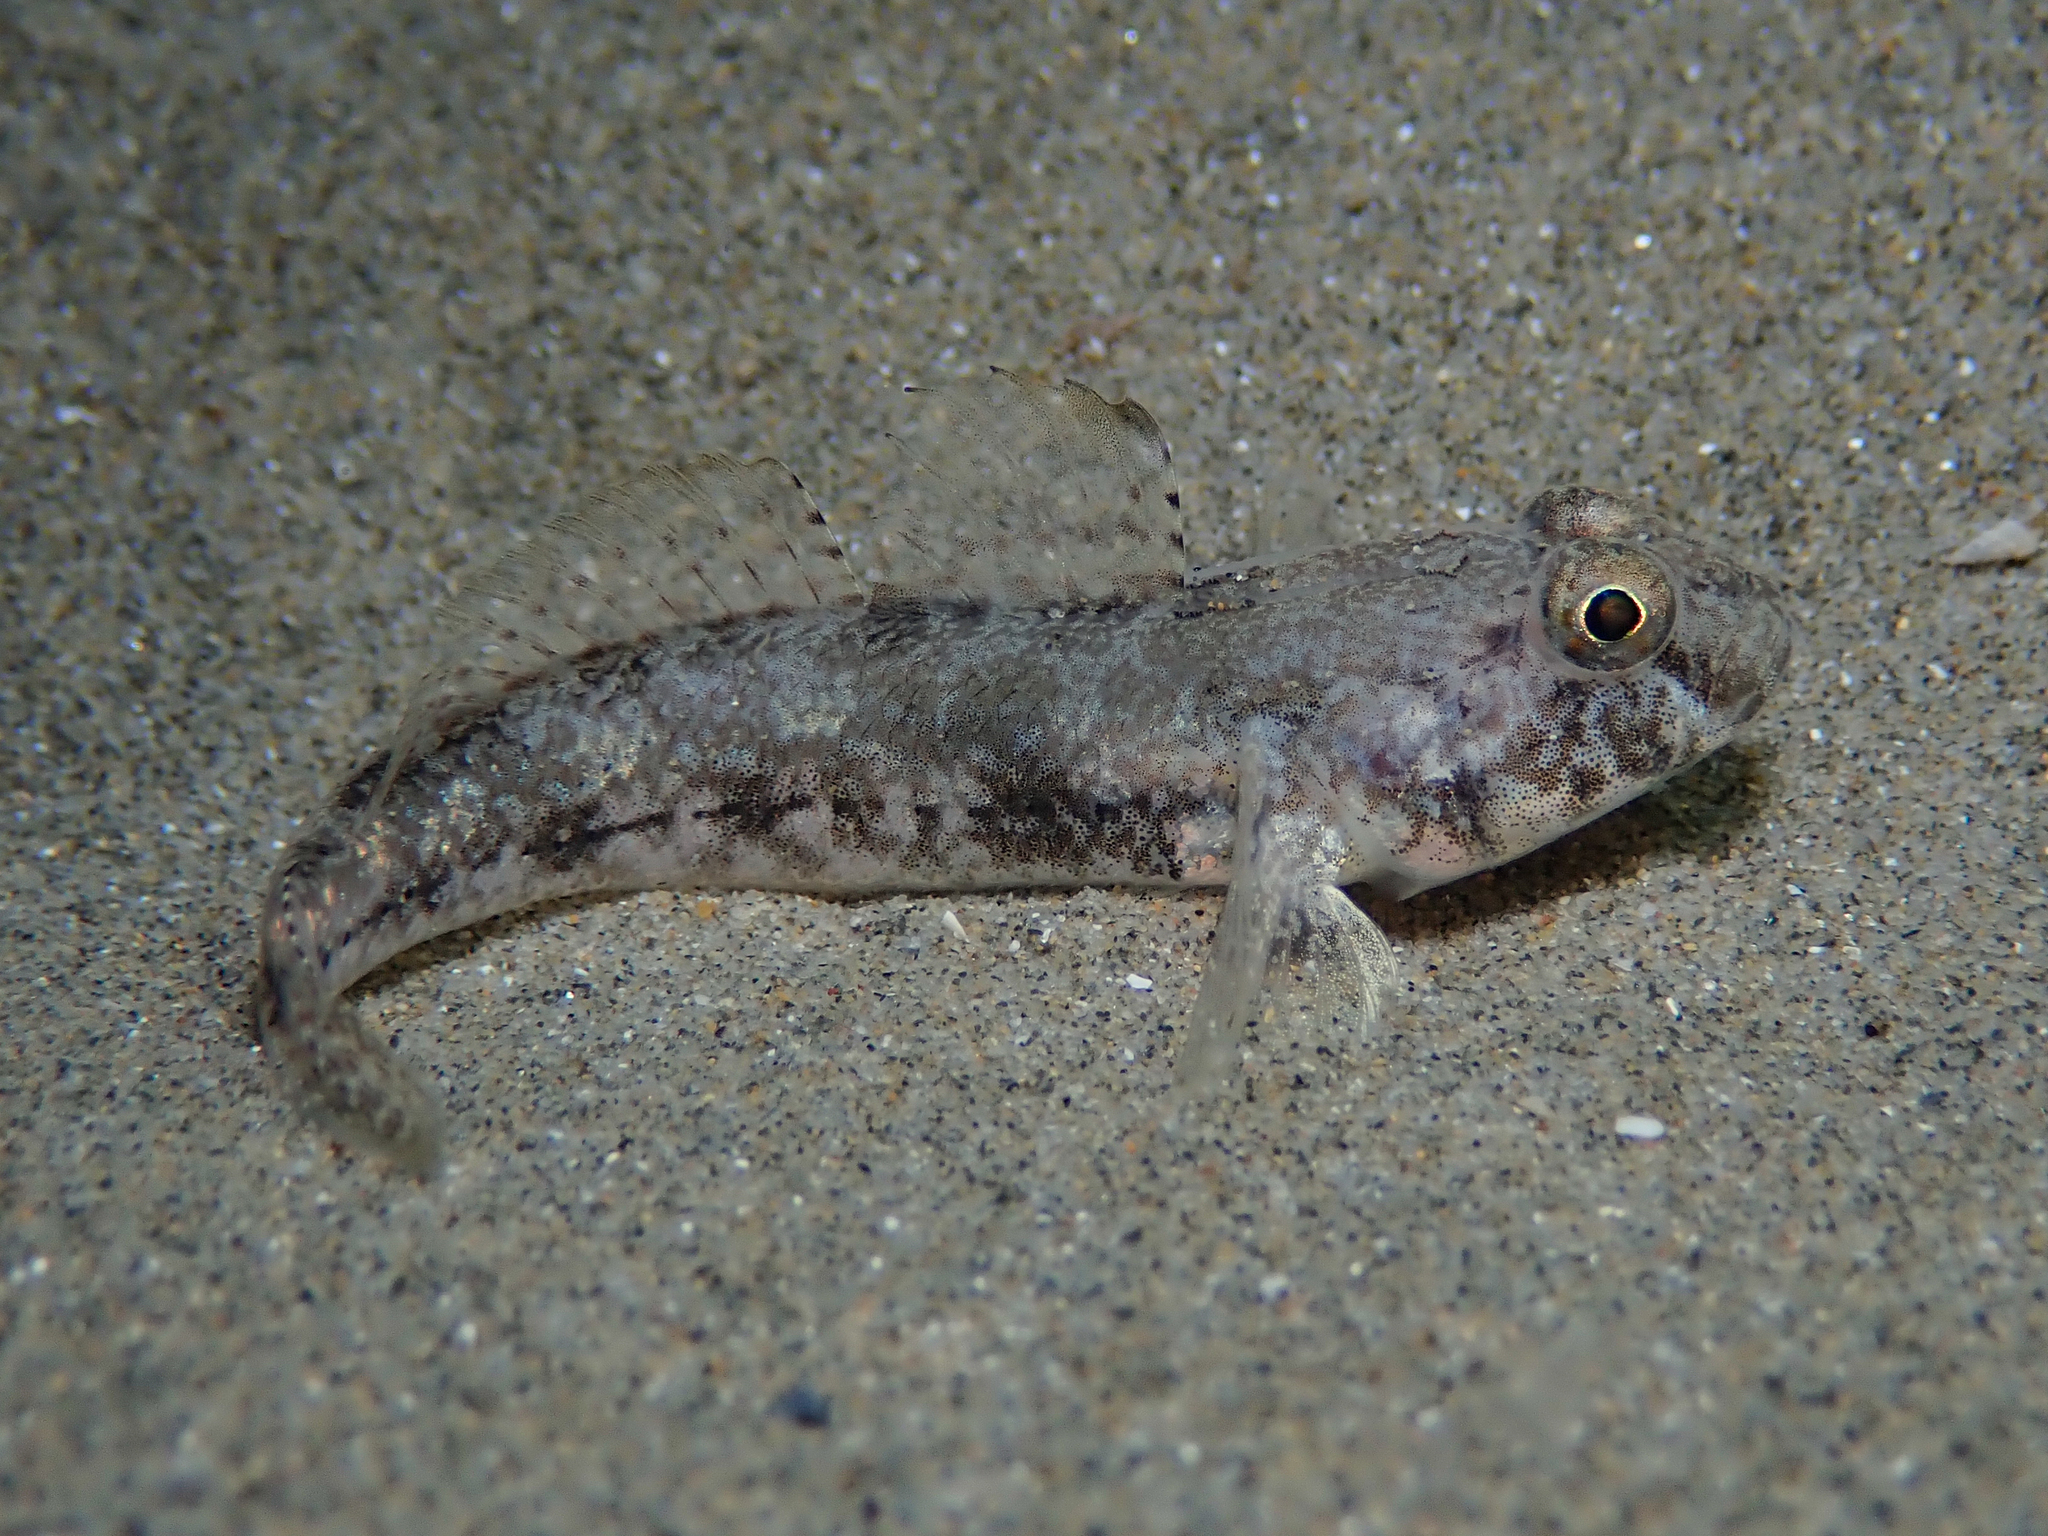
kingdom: Animalia
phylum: Chordata
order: Perciformes
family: Gobiidae
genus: Gobius
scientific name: Gobius niger
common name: Black goby
